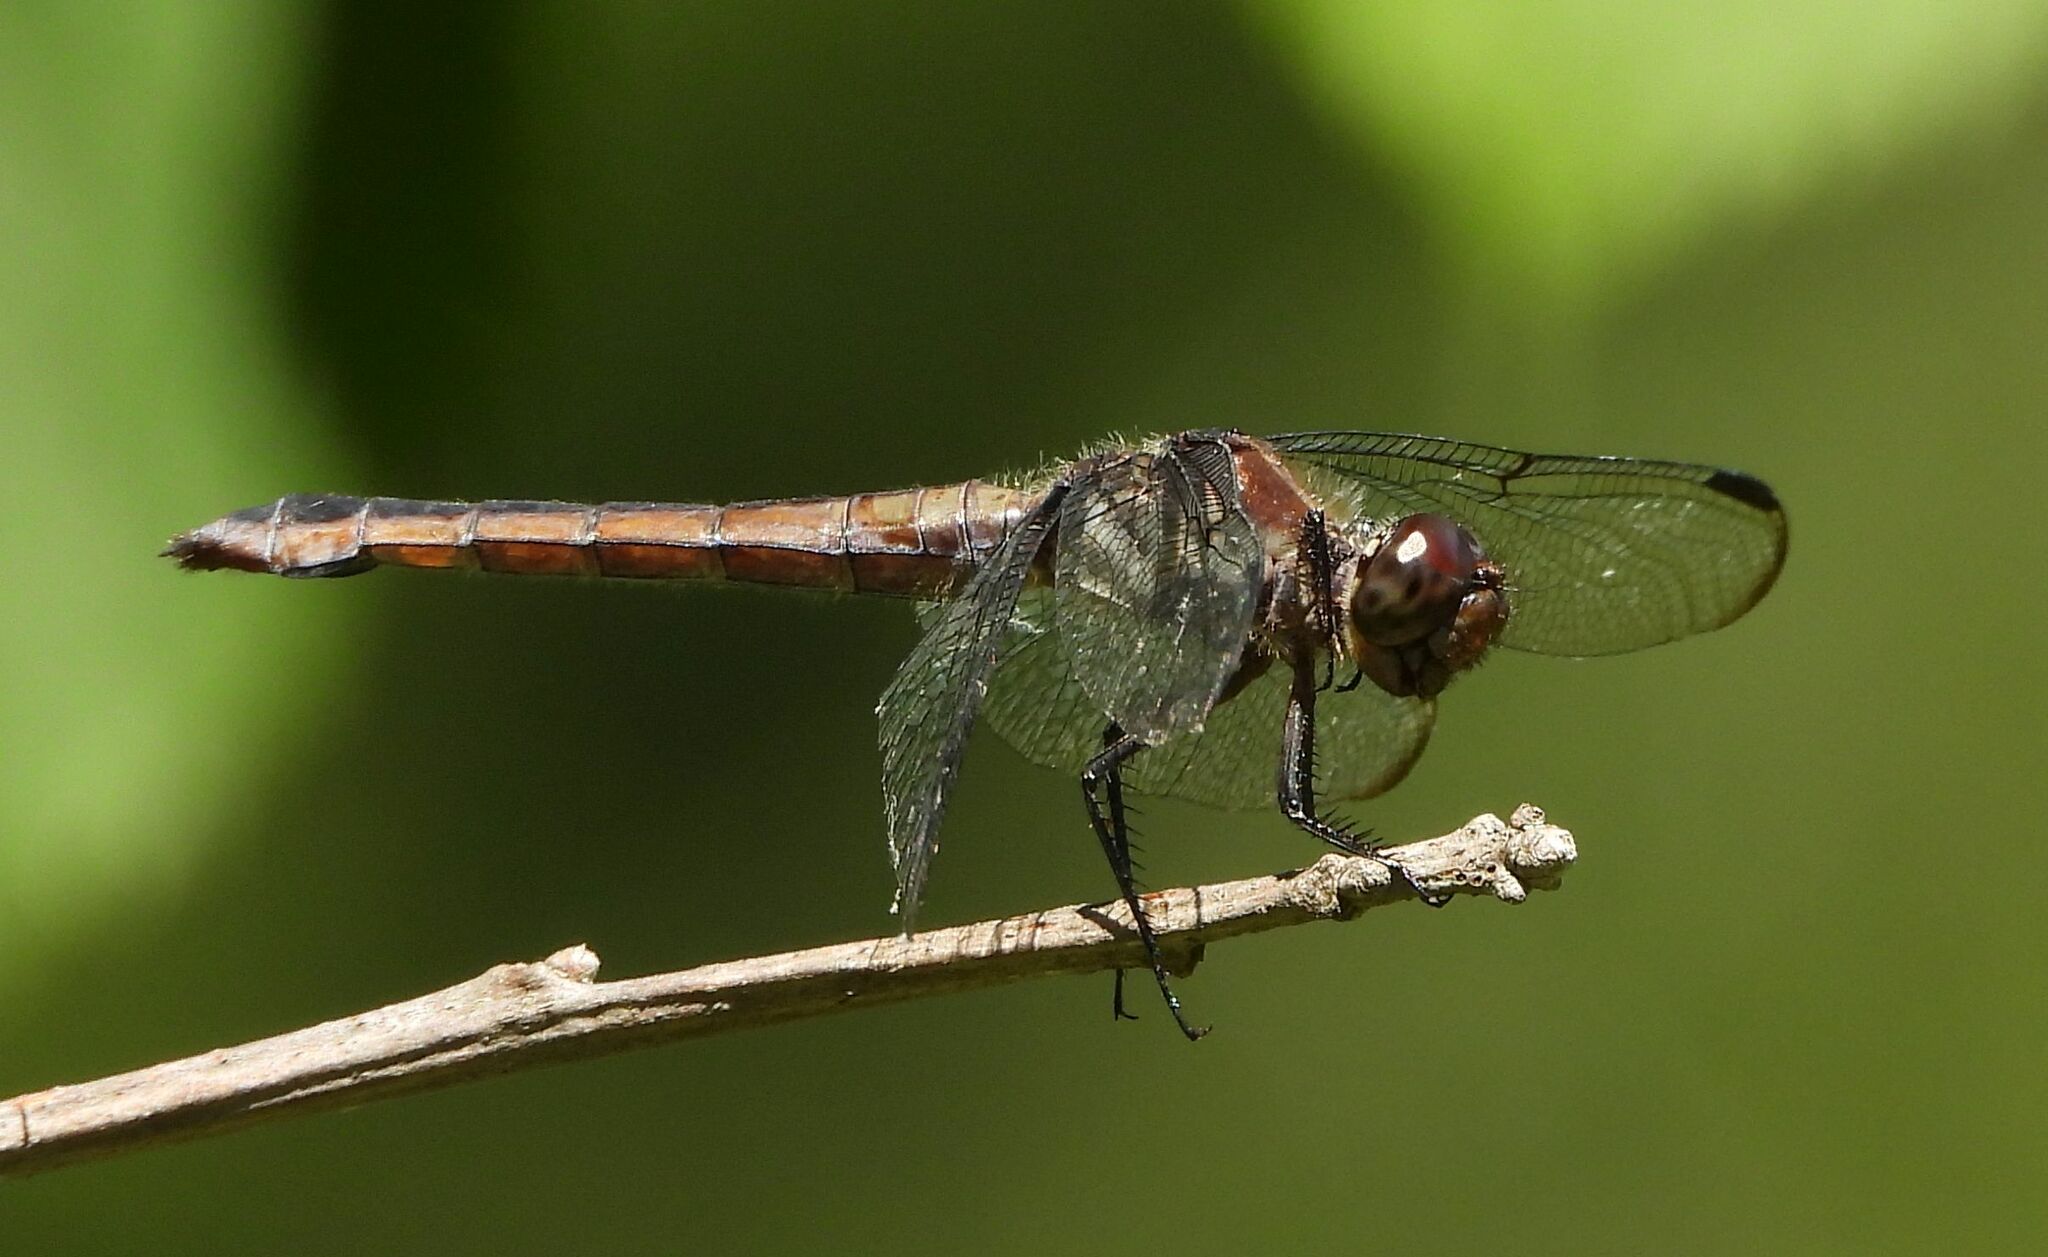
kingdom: Animalia
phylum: Arthropoda
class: Insecta
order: Odonata
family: Libellulidae
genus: Libellula
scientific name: Libellula incesta
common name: Slaty skimmer
